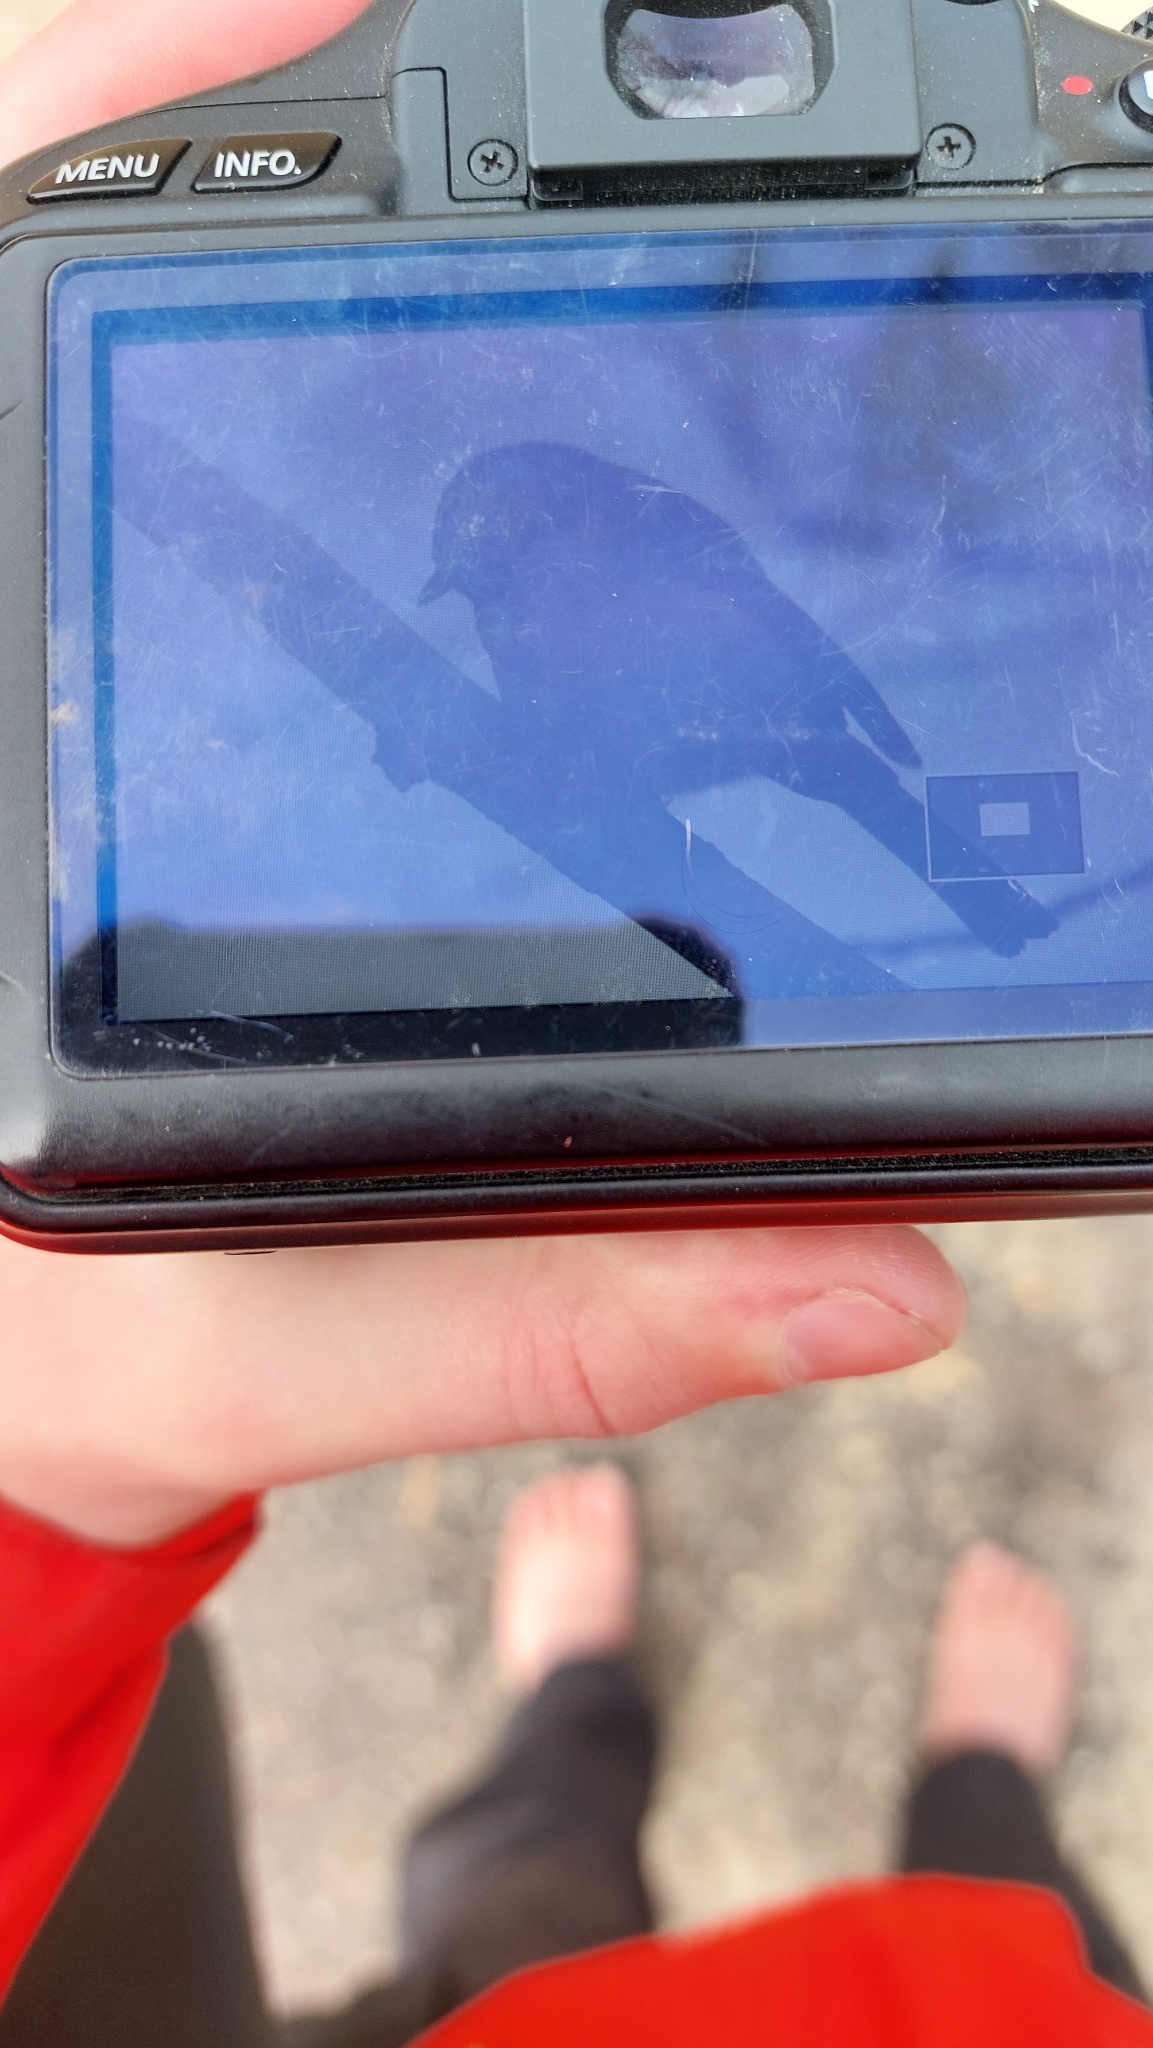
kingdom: Animalia
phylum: Chordata
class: Aves
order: Passeriformes
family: Paridae
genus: Parus
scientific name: Parus major
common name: Great tit
